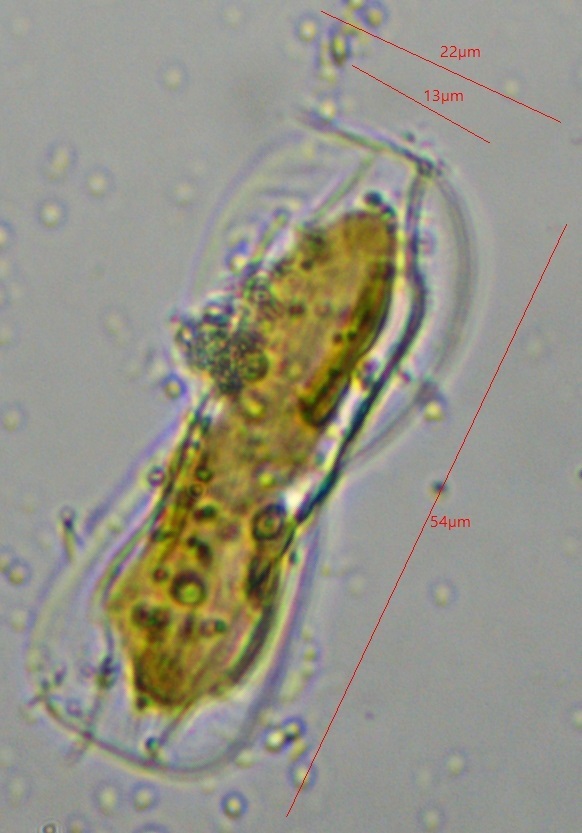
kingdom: Chromista
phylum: Ochrophyta
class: Bacillariophyceae
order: Surirellales
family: Entomoneidaceae
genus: Entomoneis
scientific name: Entomoneis paludosa
